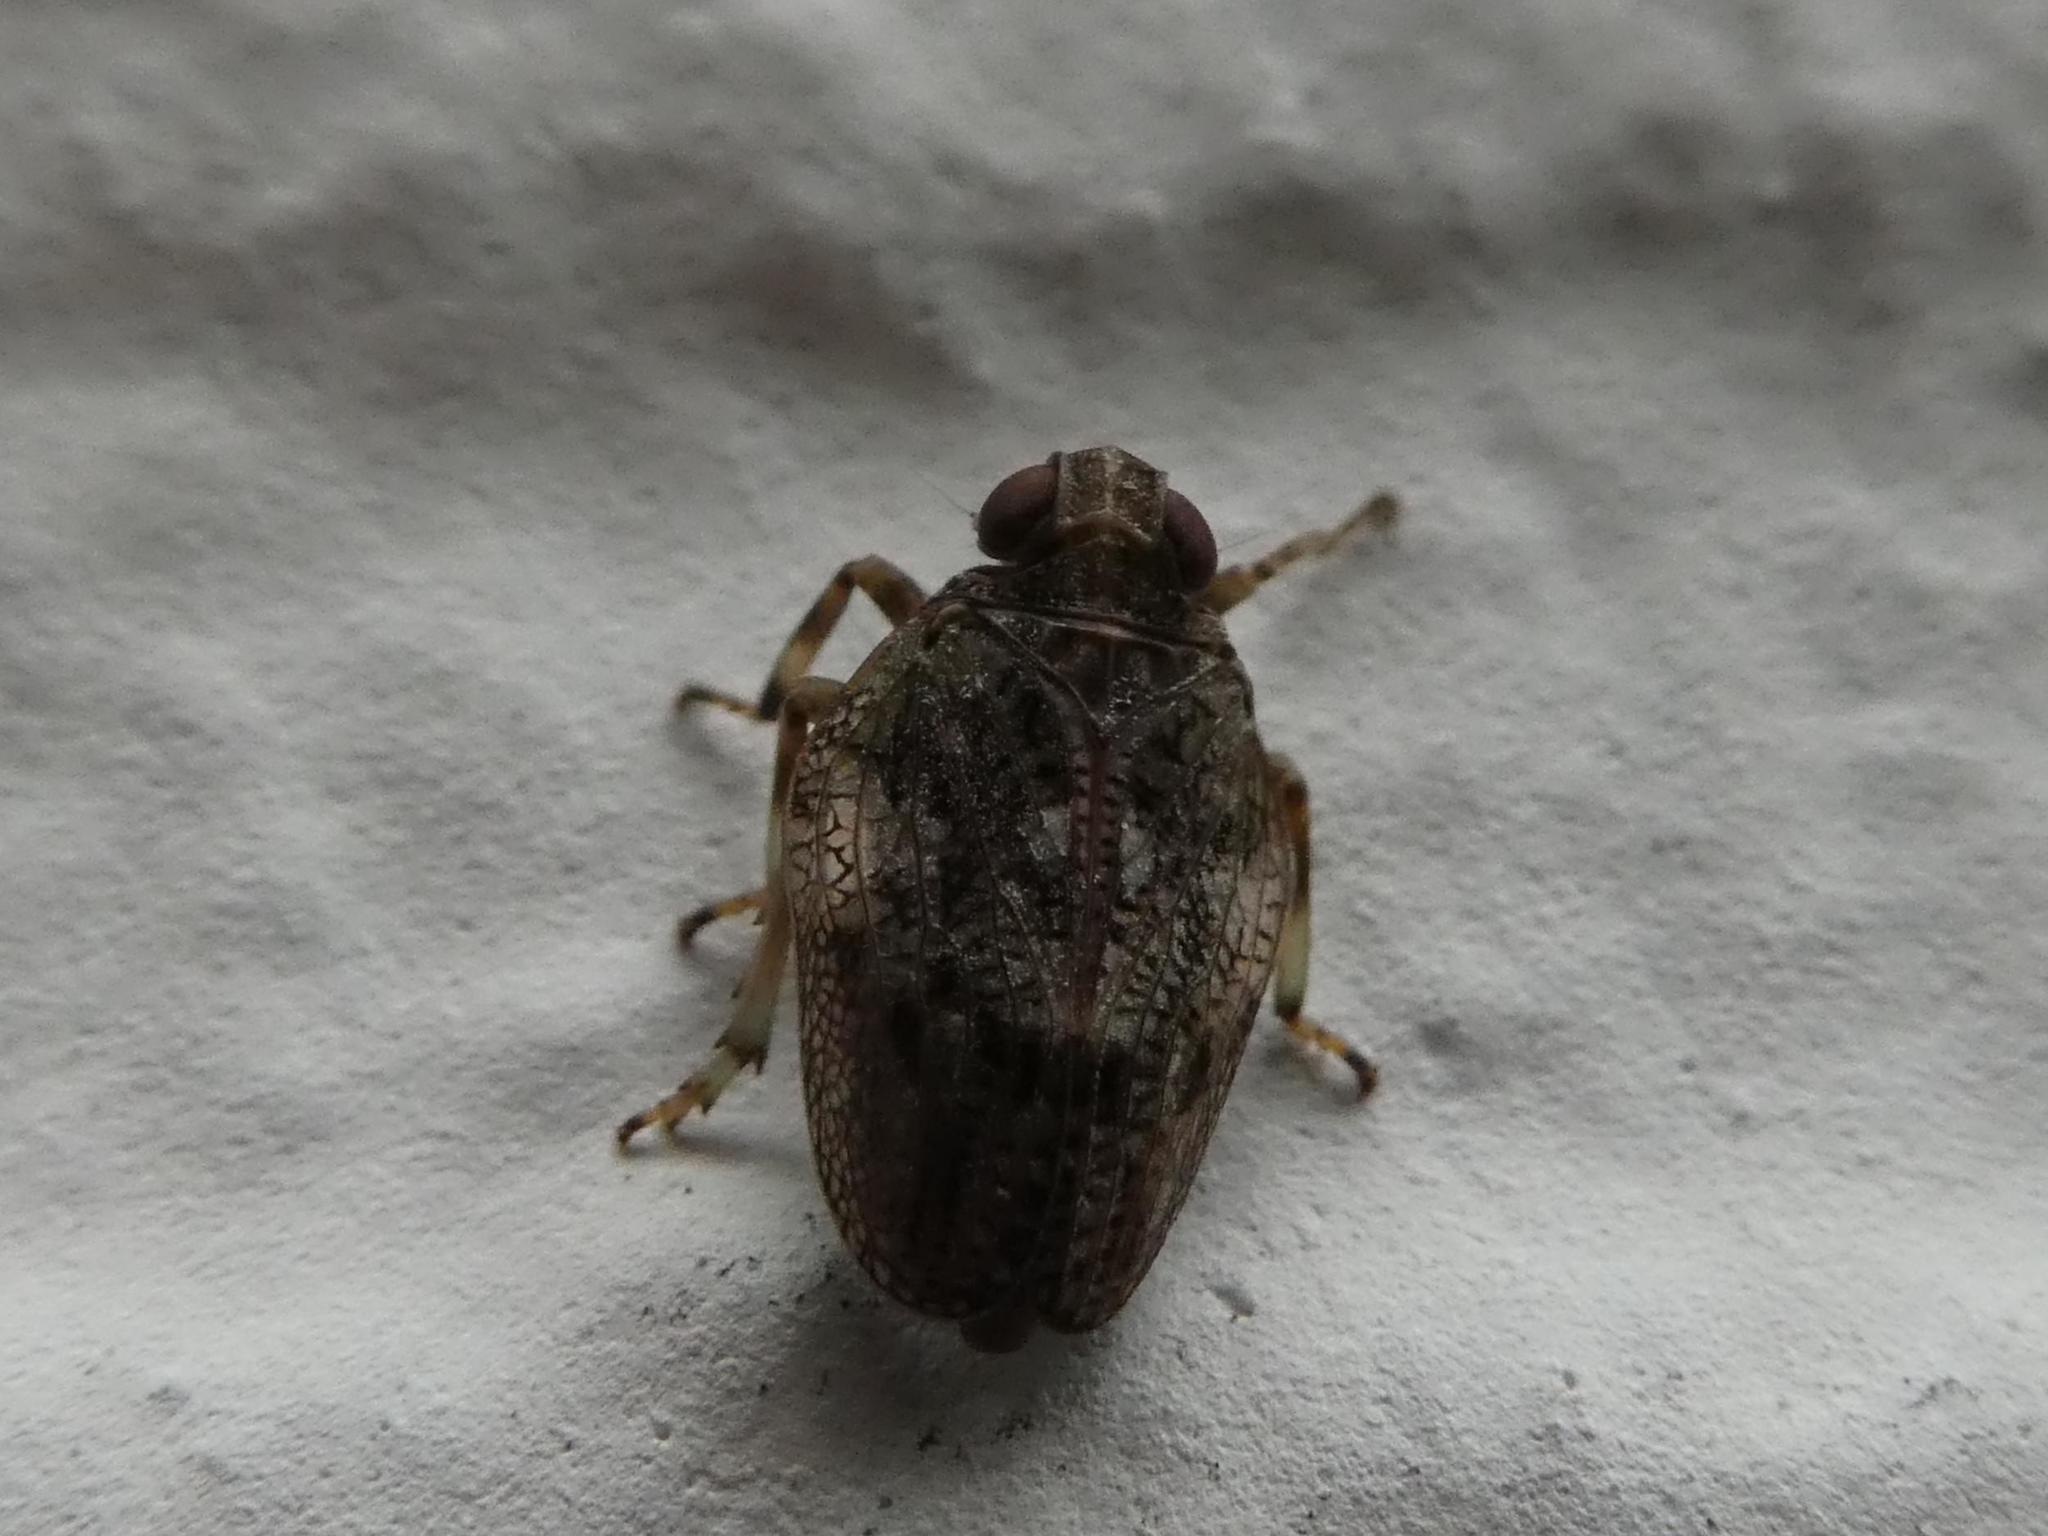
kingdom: Animalia
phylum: Arthropoda
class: Insecta
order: Hemiptera
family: Issidae
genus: Issus
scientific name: Issus coleoptratus
